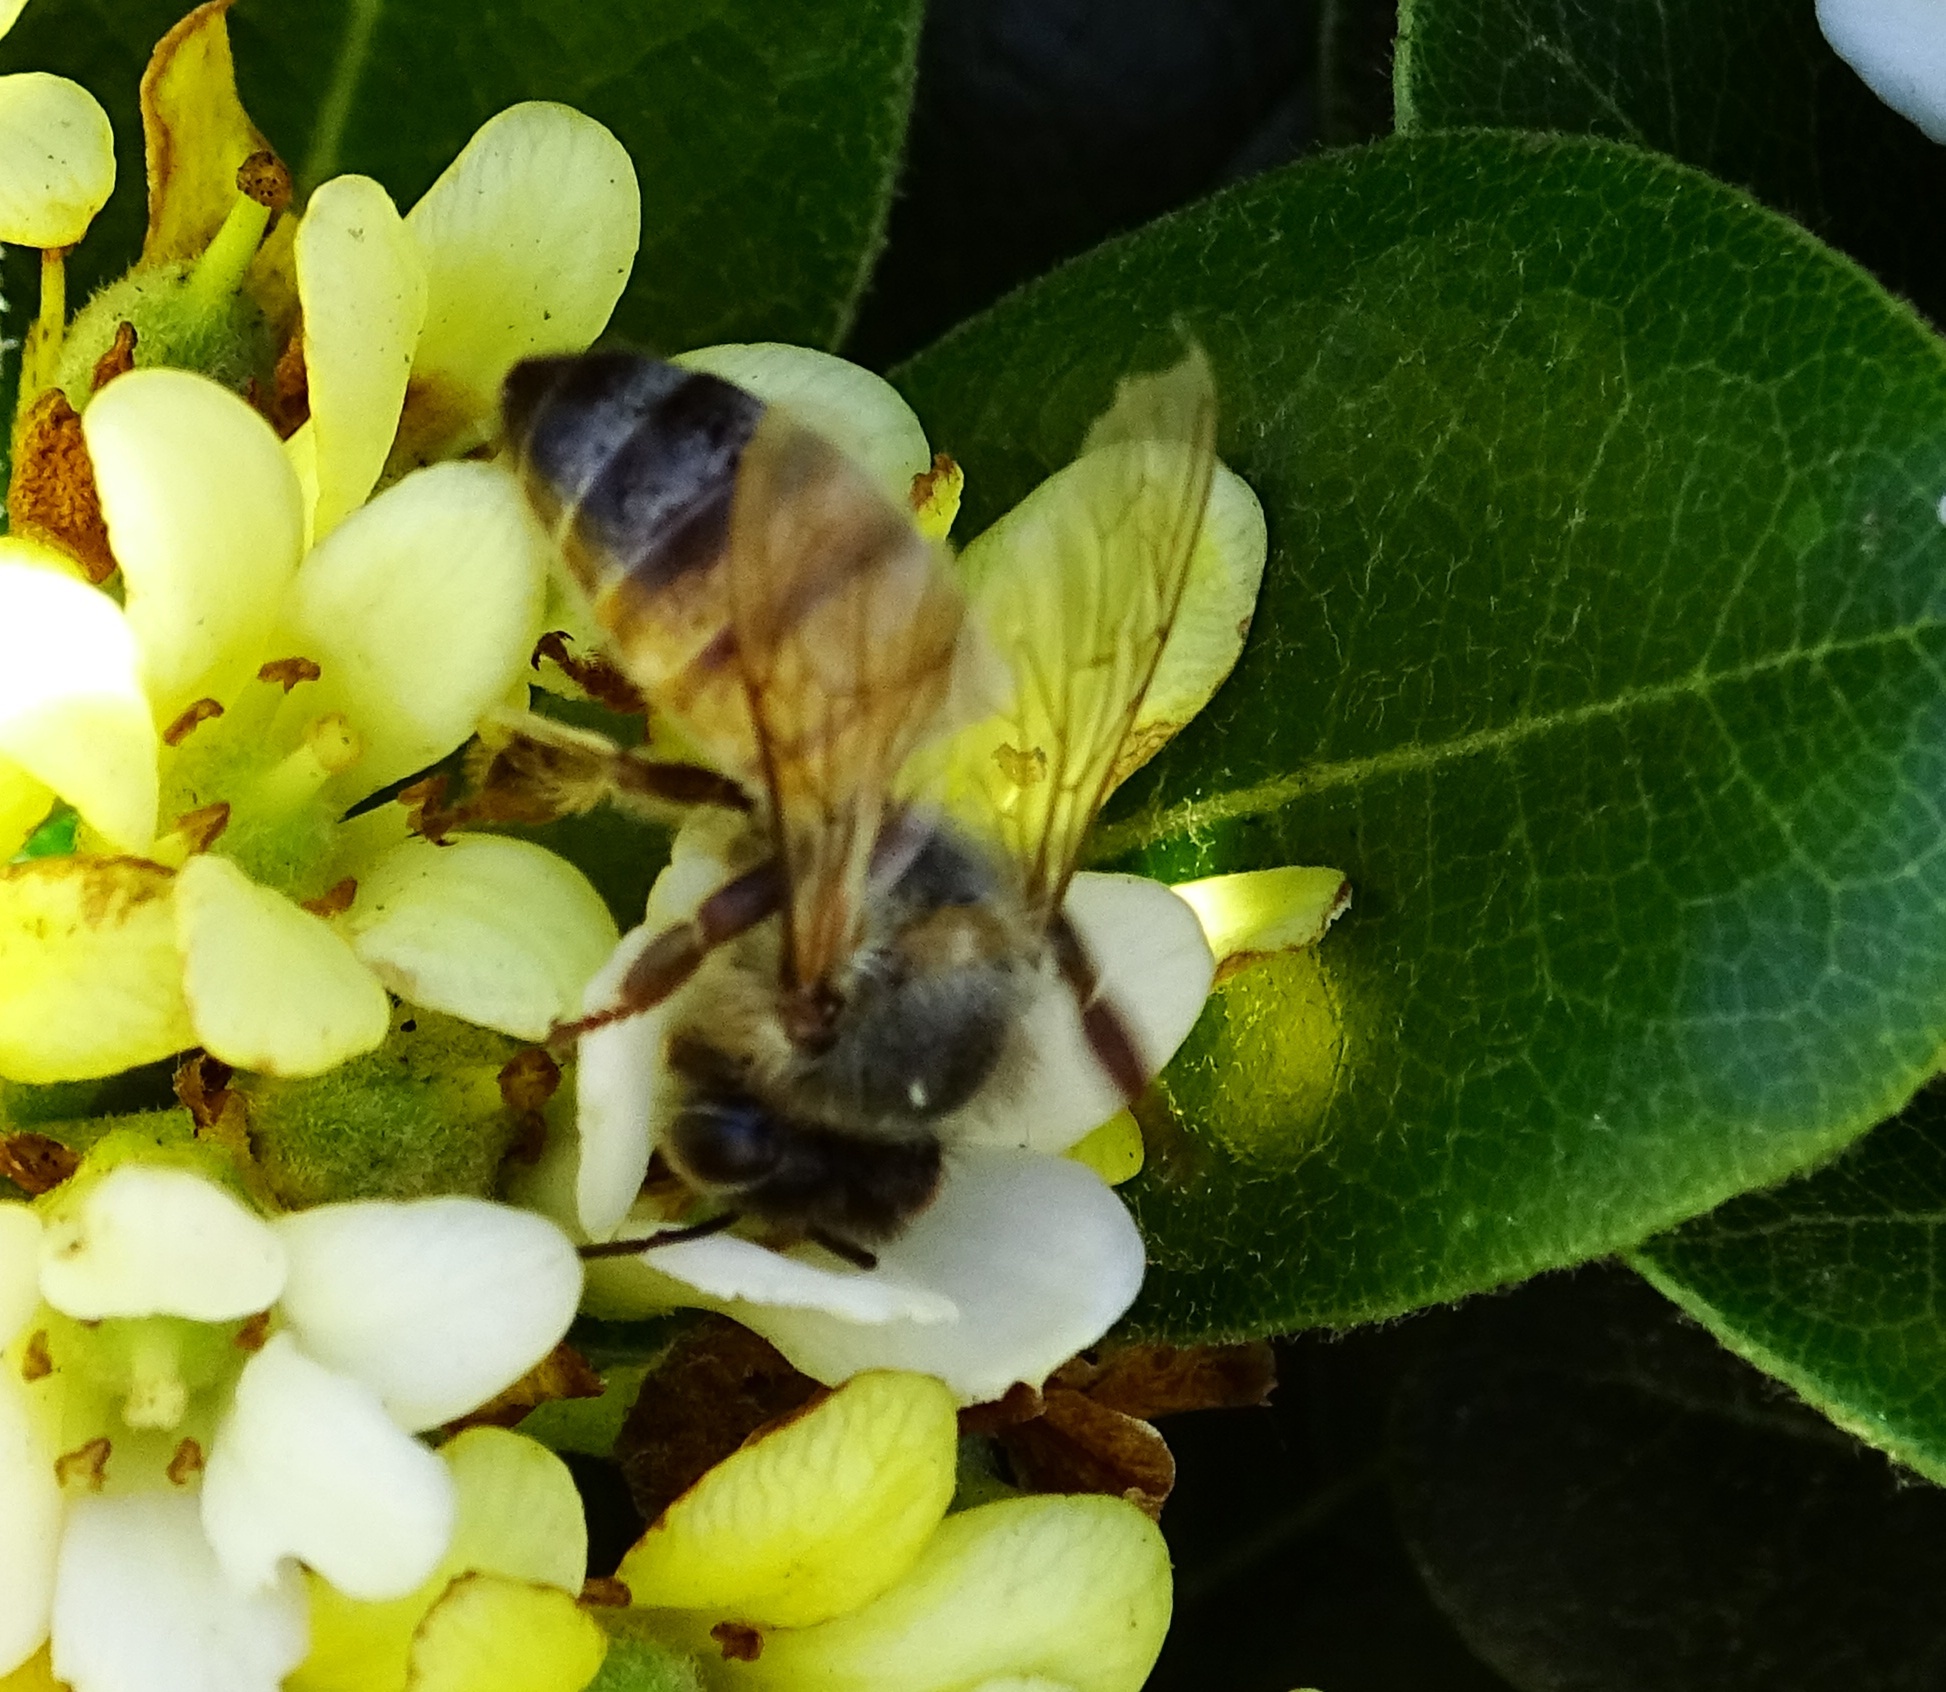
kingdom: Animalia
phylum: Arthropoda
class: Insecta
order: Hymenoptera
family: Apidae
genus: Apis
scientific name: Apis mellifera
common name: Honey bee
